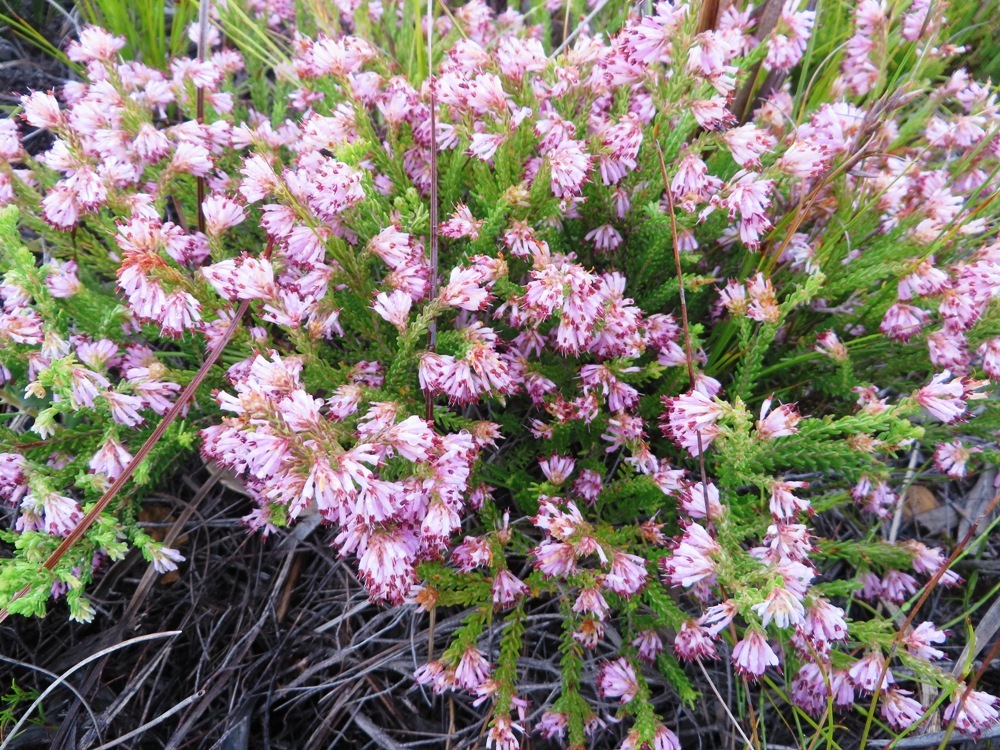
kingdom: Plantae
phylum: Tracheophyta
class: Magnoliopsida
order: Ericales
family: Ericaceae
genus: Erica
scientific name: Erica labialis
